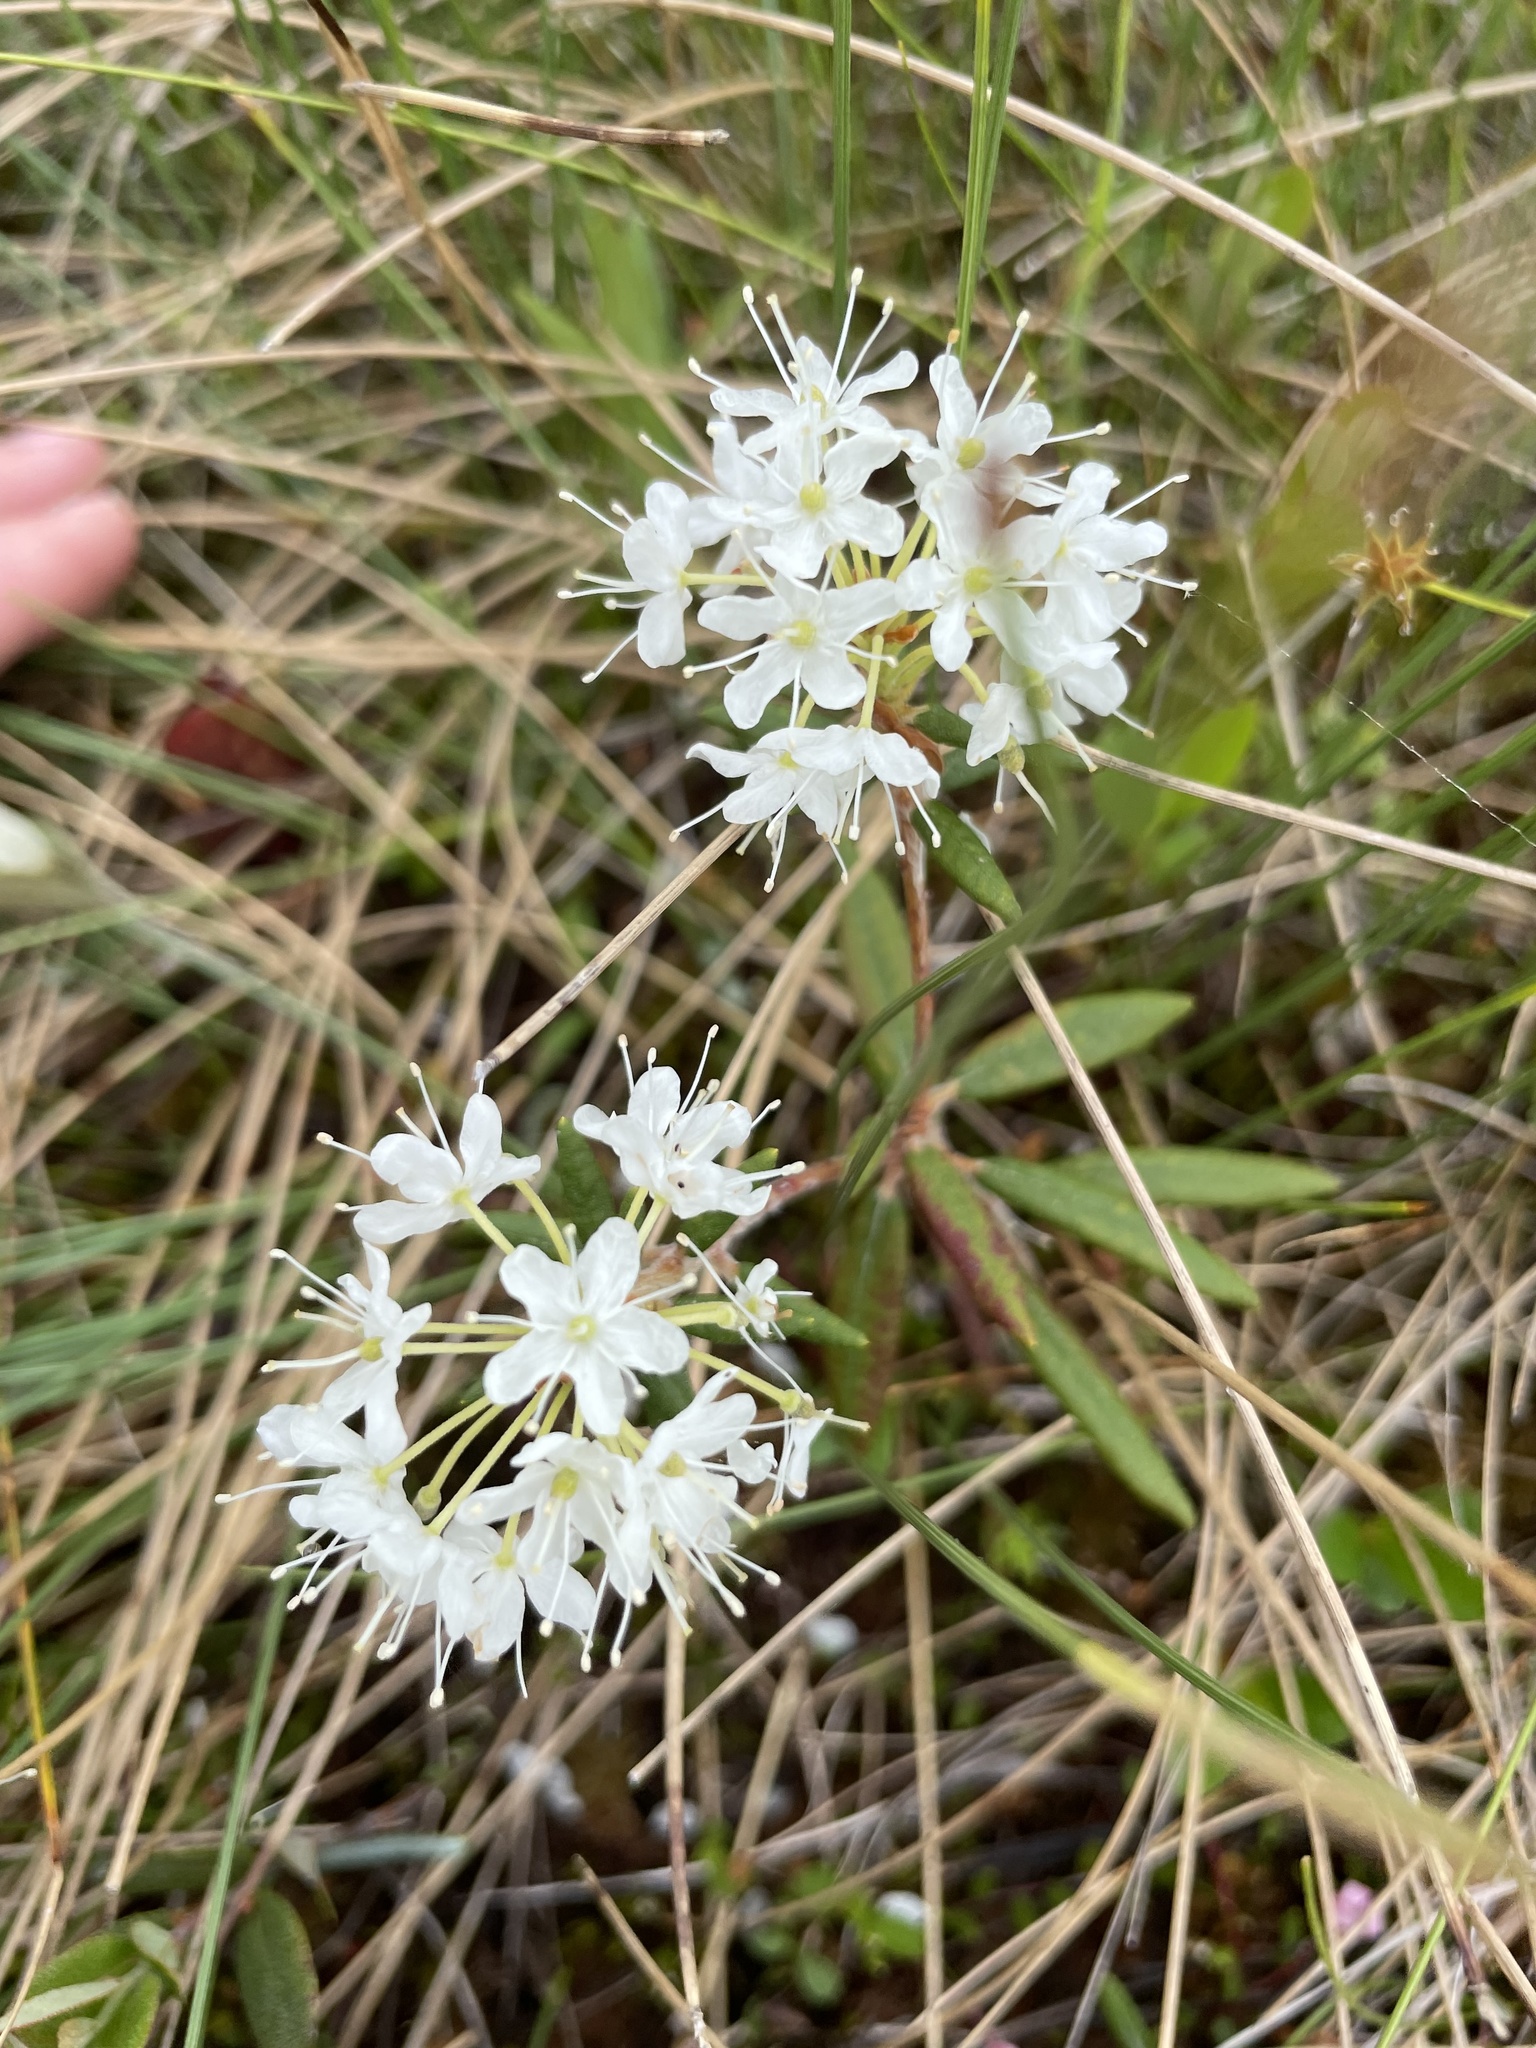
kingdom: Plantae
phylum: Tracheophyta
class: Magnoliopsida
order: Ericales
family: Ericaceae
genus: Rhododendron
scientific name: Rhododendron groenlandicum
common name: Bog labrador tea
